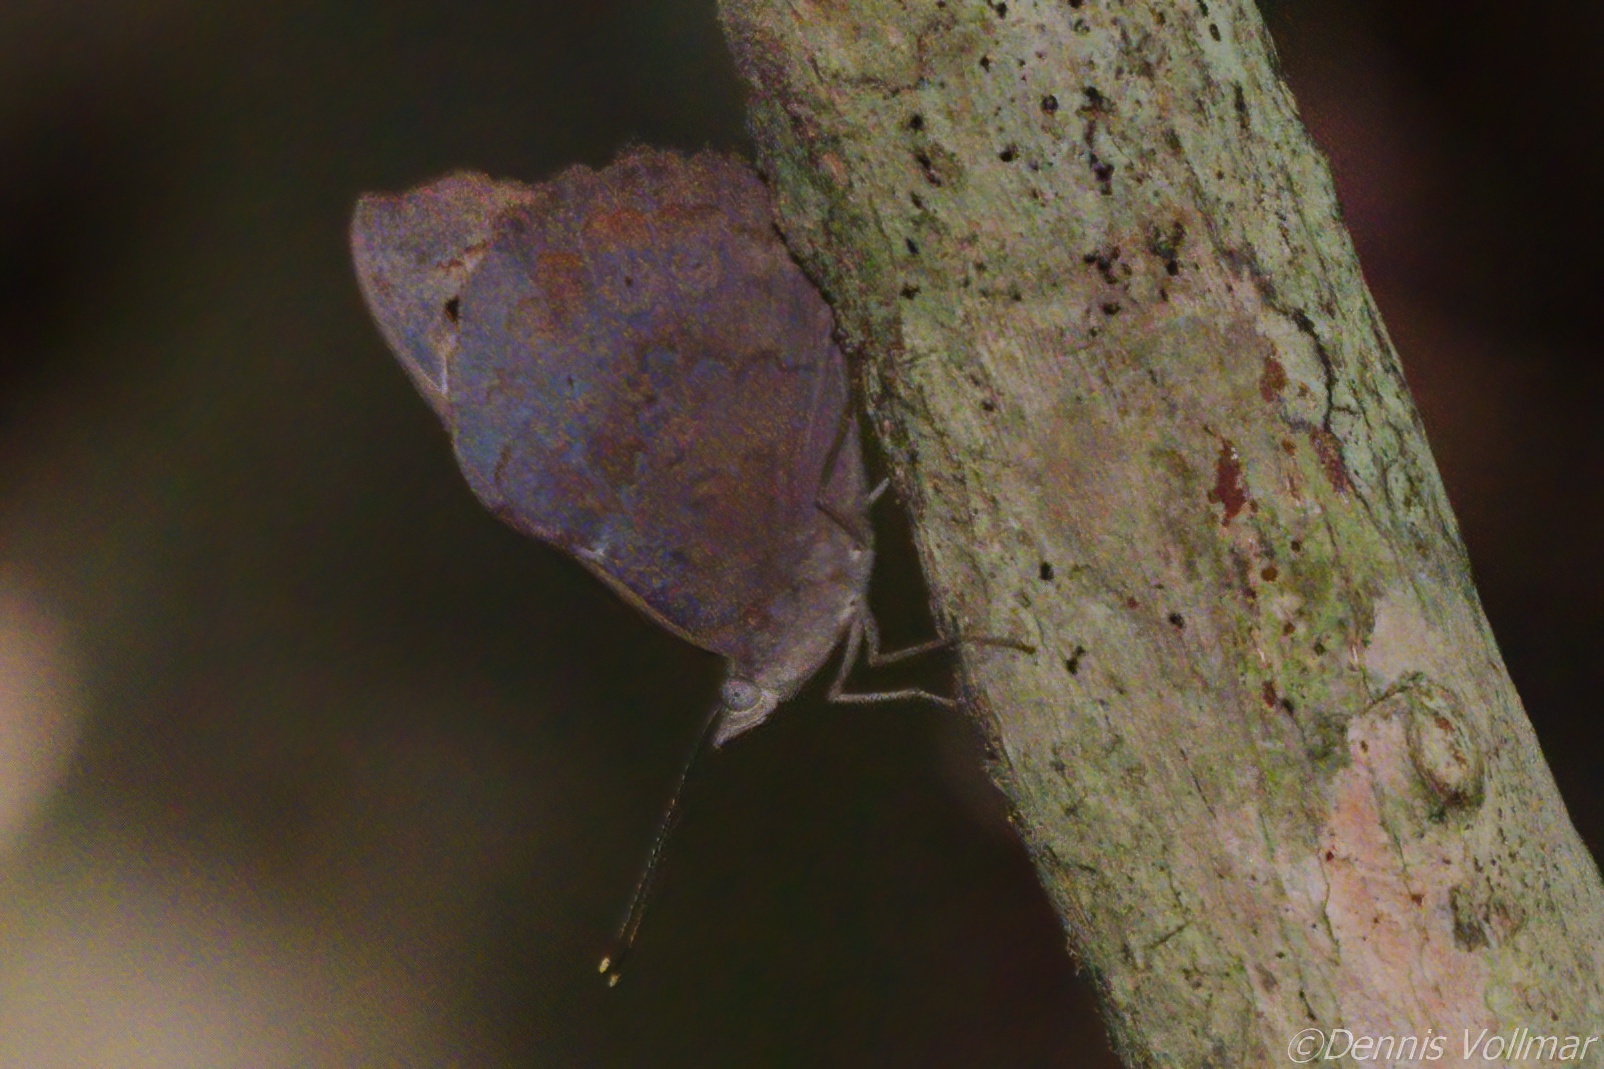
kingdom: Animalia
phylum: Arthropoda
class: Insecta
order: Lepidoptera
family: Nymphalidae
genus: Eunica
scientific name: Eunica tatila
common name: Florida purplewing
